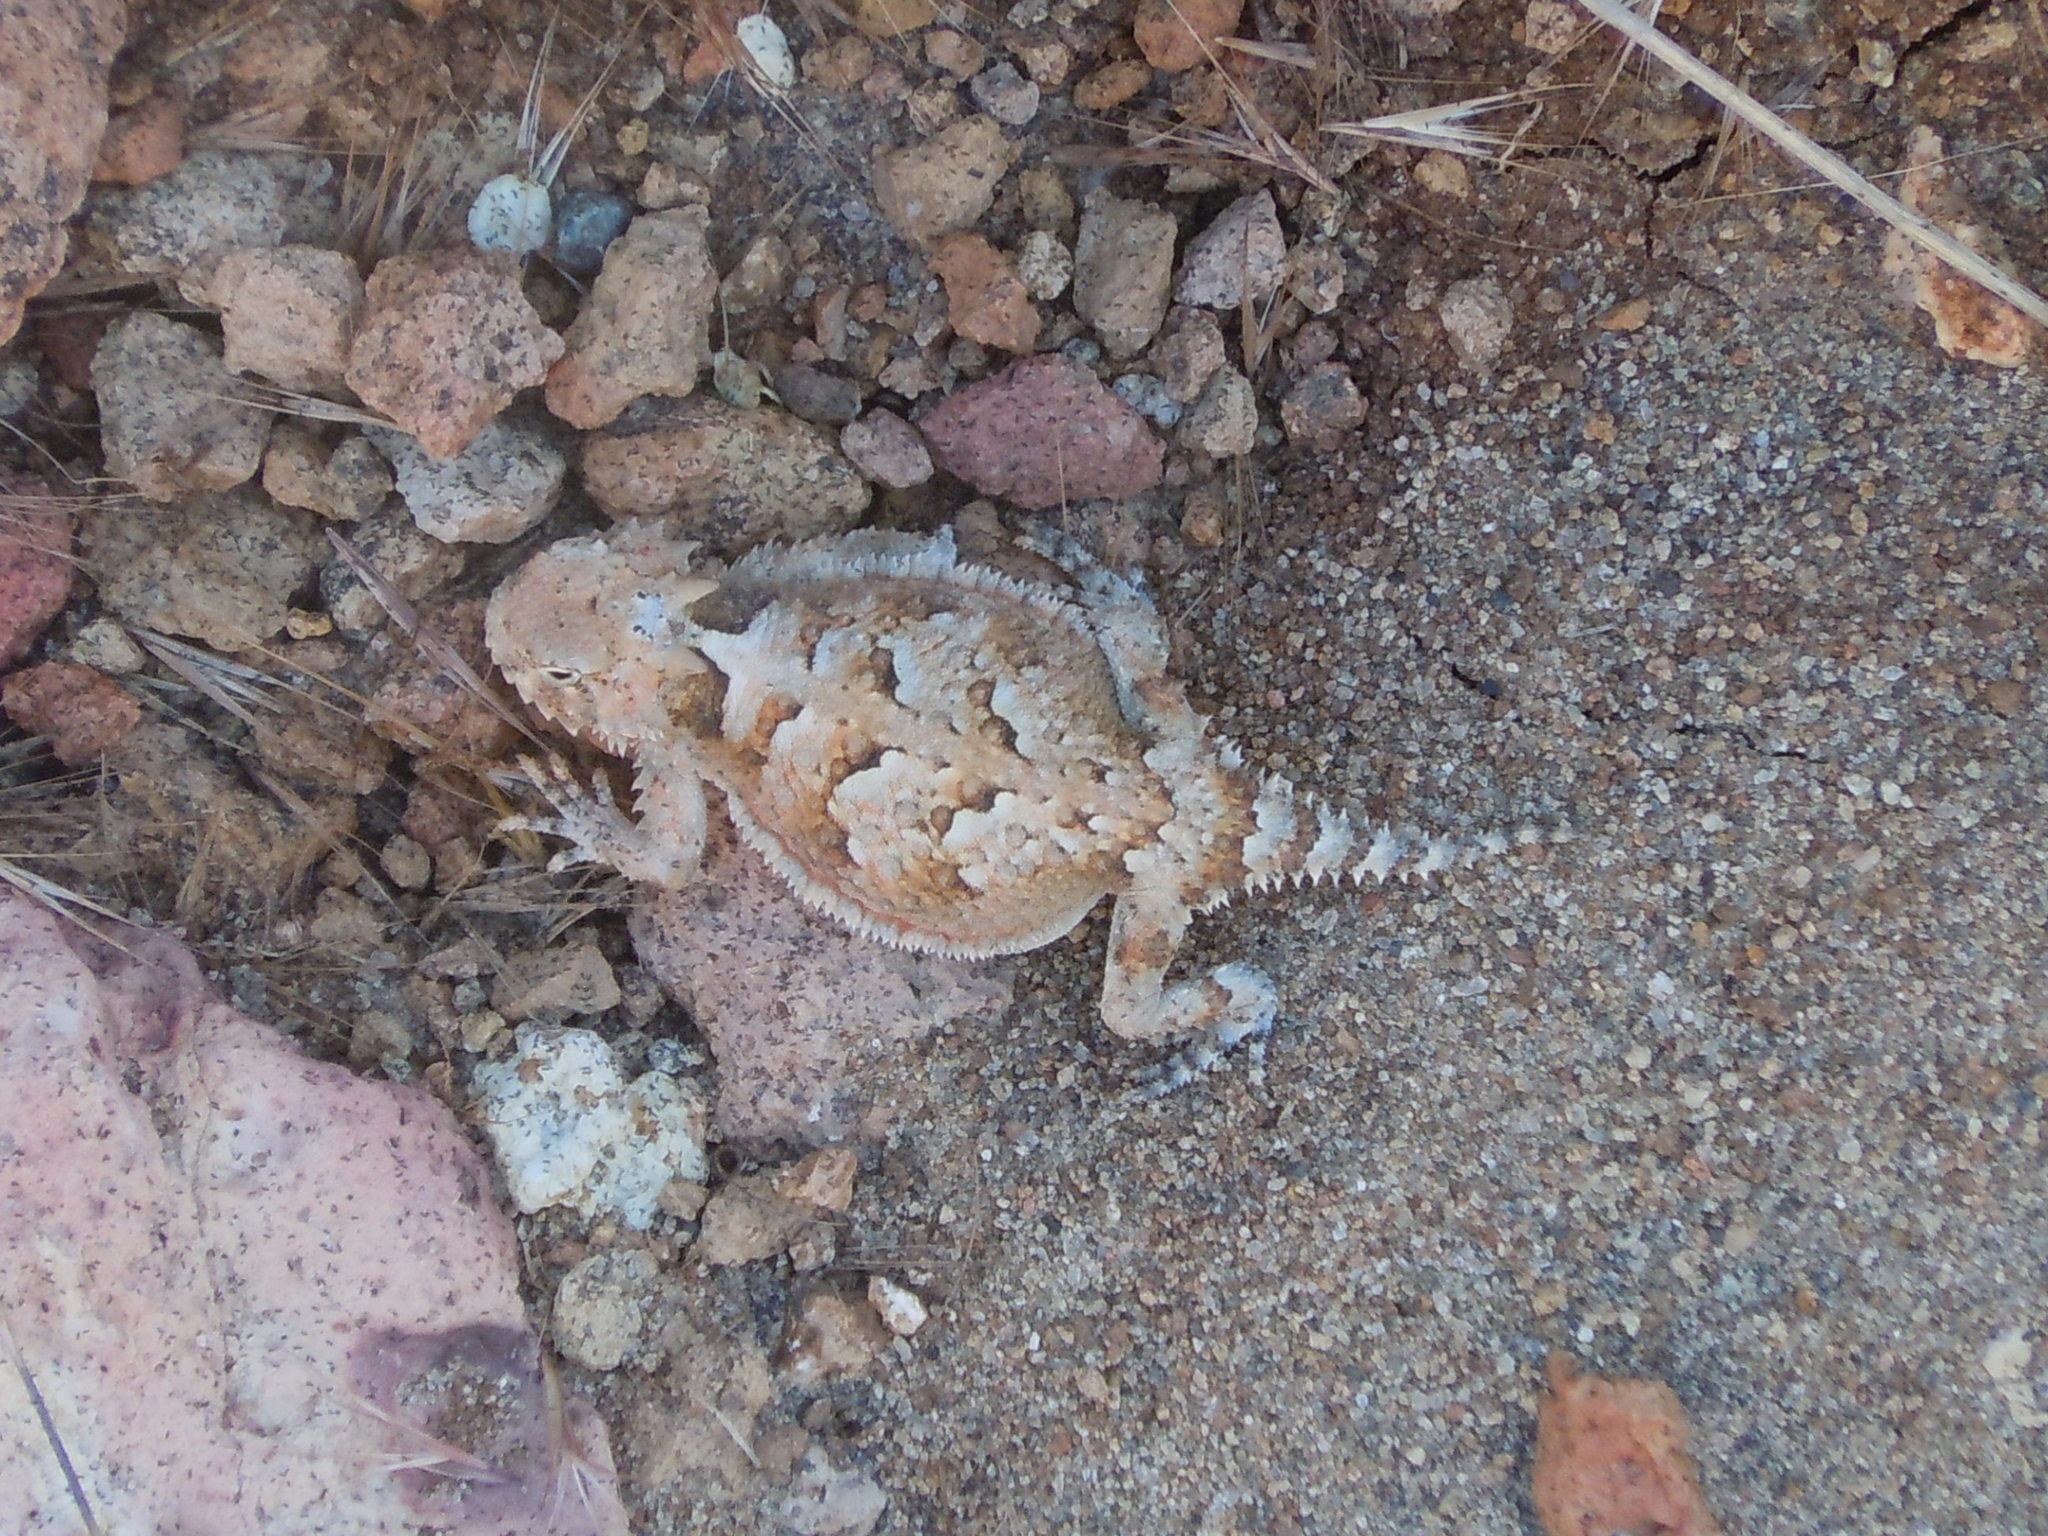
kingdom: Animalia
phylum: Chordata
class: Squamata
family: Phrynosomatidae
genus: Phrynosoma
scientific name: Phrynosoma platyrhinos
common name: Desert horned lizard
